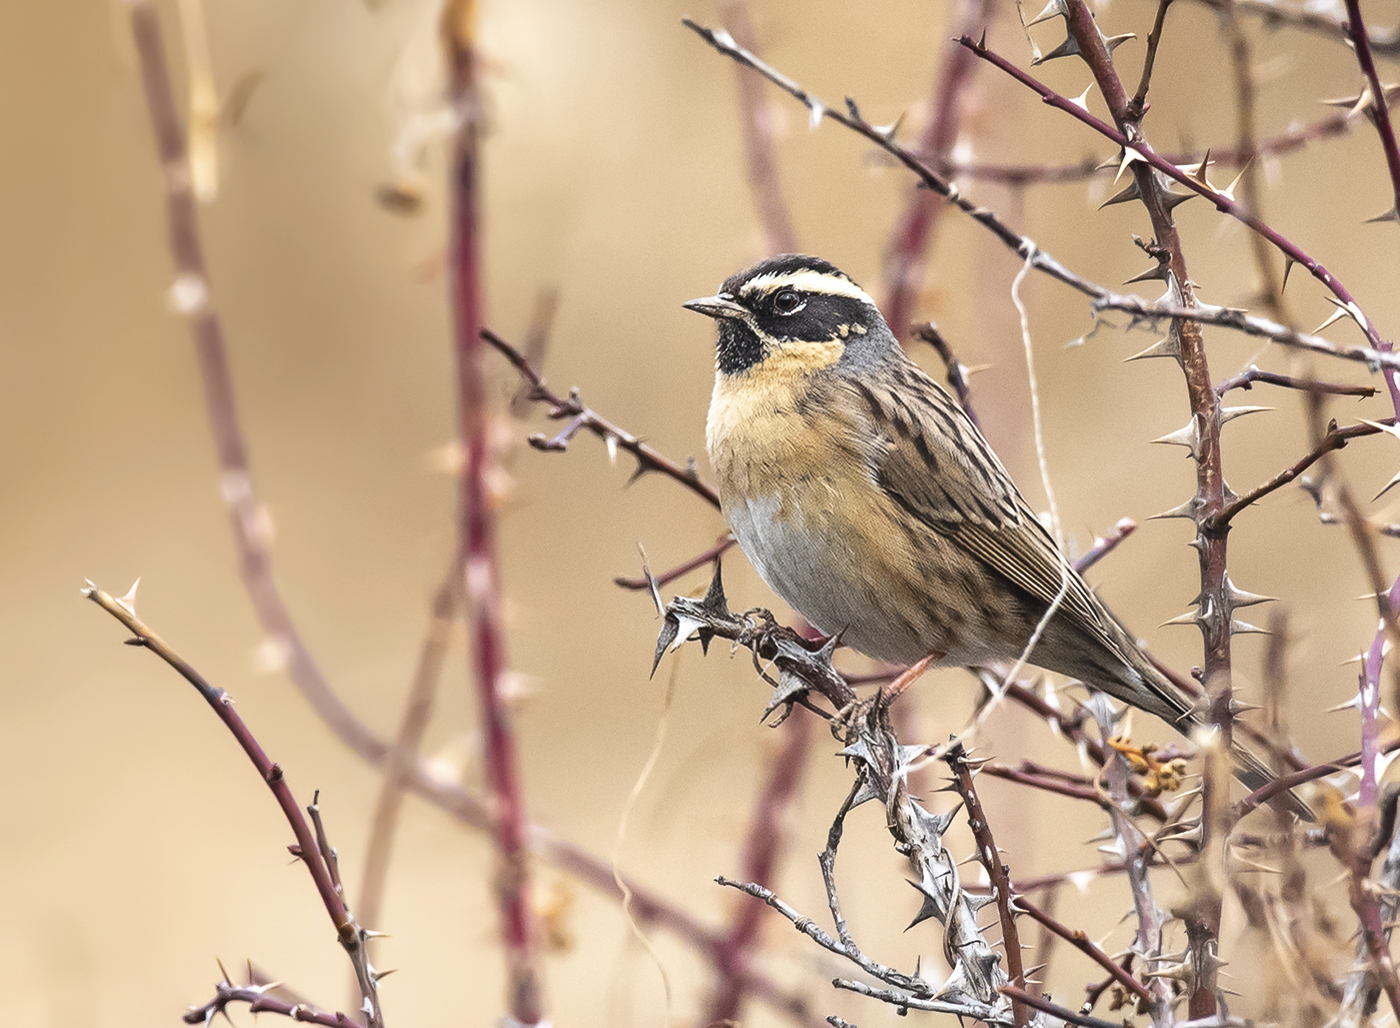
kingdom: Animalia
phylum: Chordata
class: Aves
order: Passeriformes
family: Prunellidae
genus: Prunella
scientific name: Prunella atrogularis
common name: Black-throated accentor
